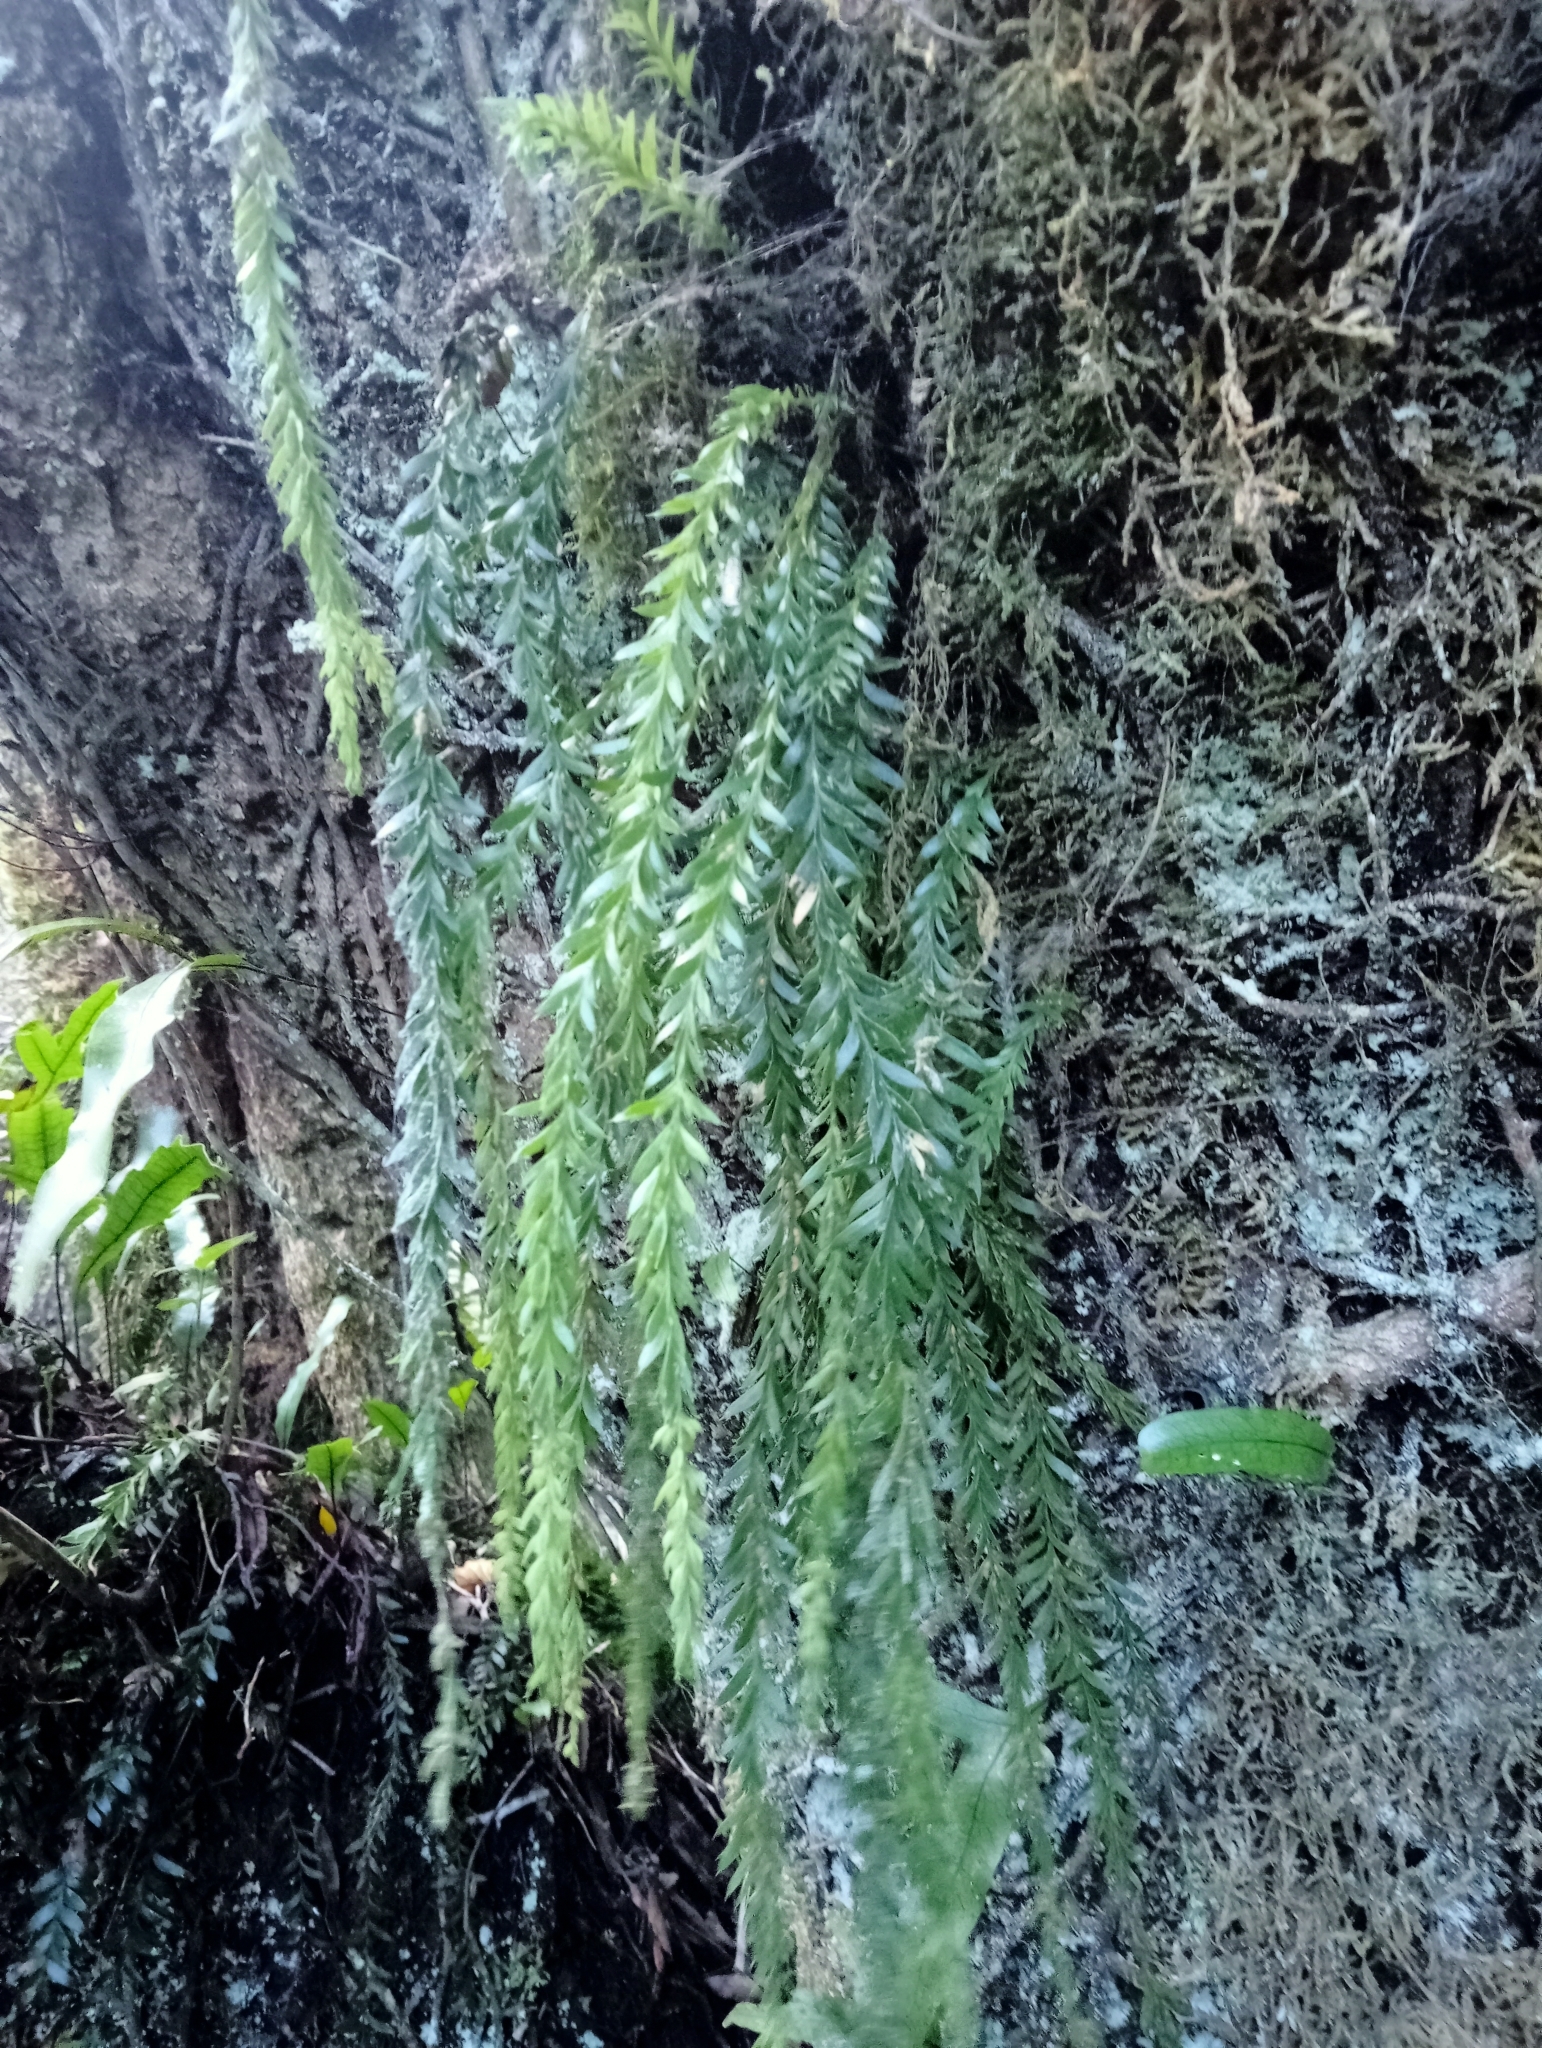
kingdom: Plantae
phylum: Tracheophyta
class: Polypodiopsida
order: Psilotales
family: Psilotaceae
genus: Tmesipteris
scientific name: Tmesipteris tannensis
